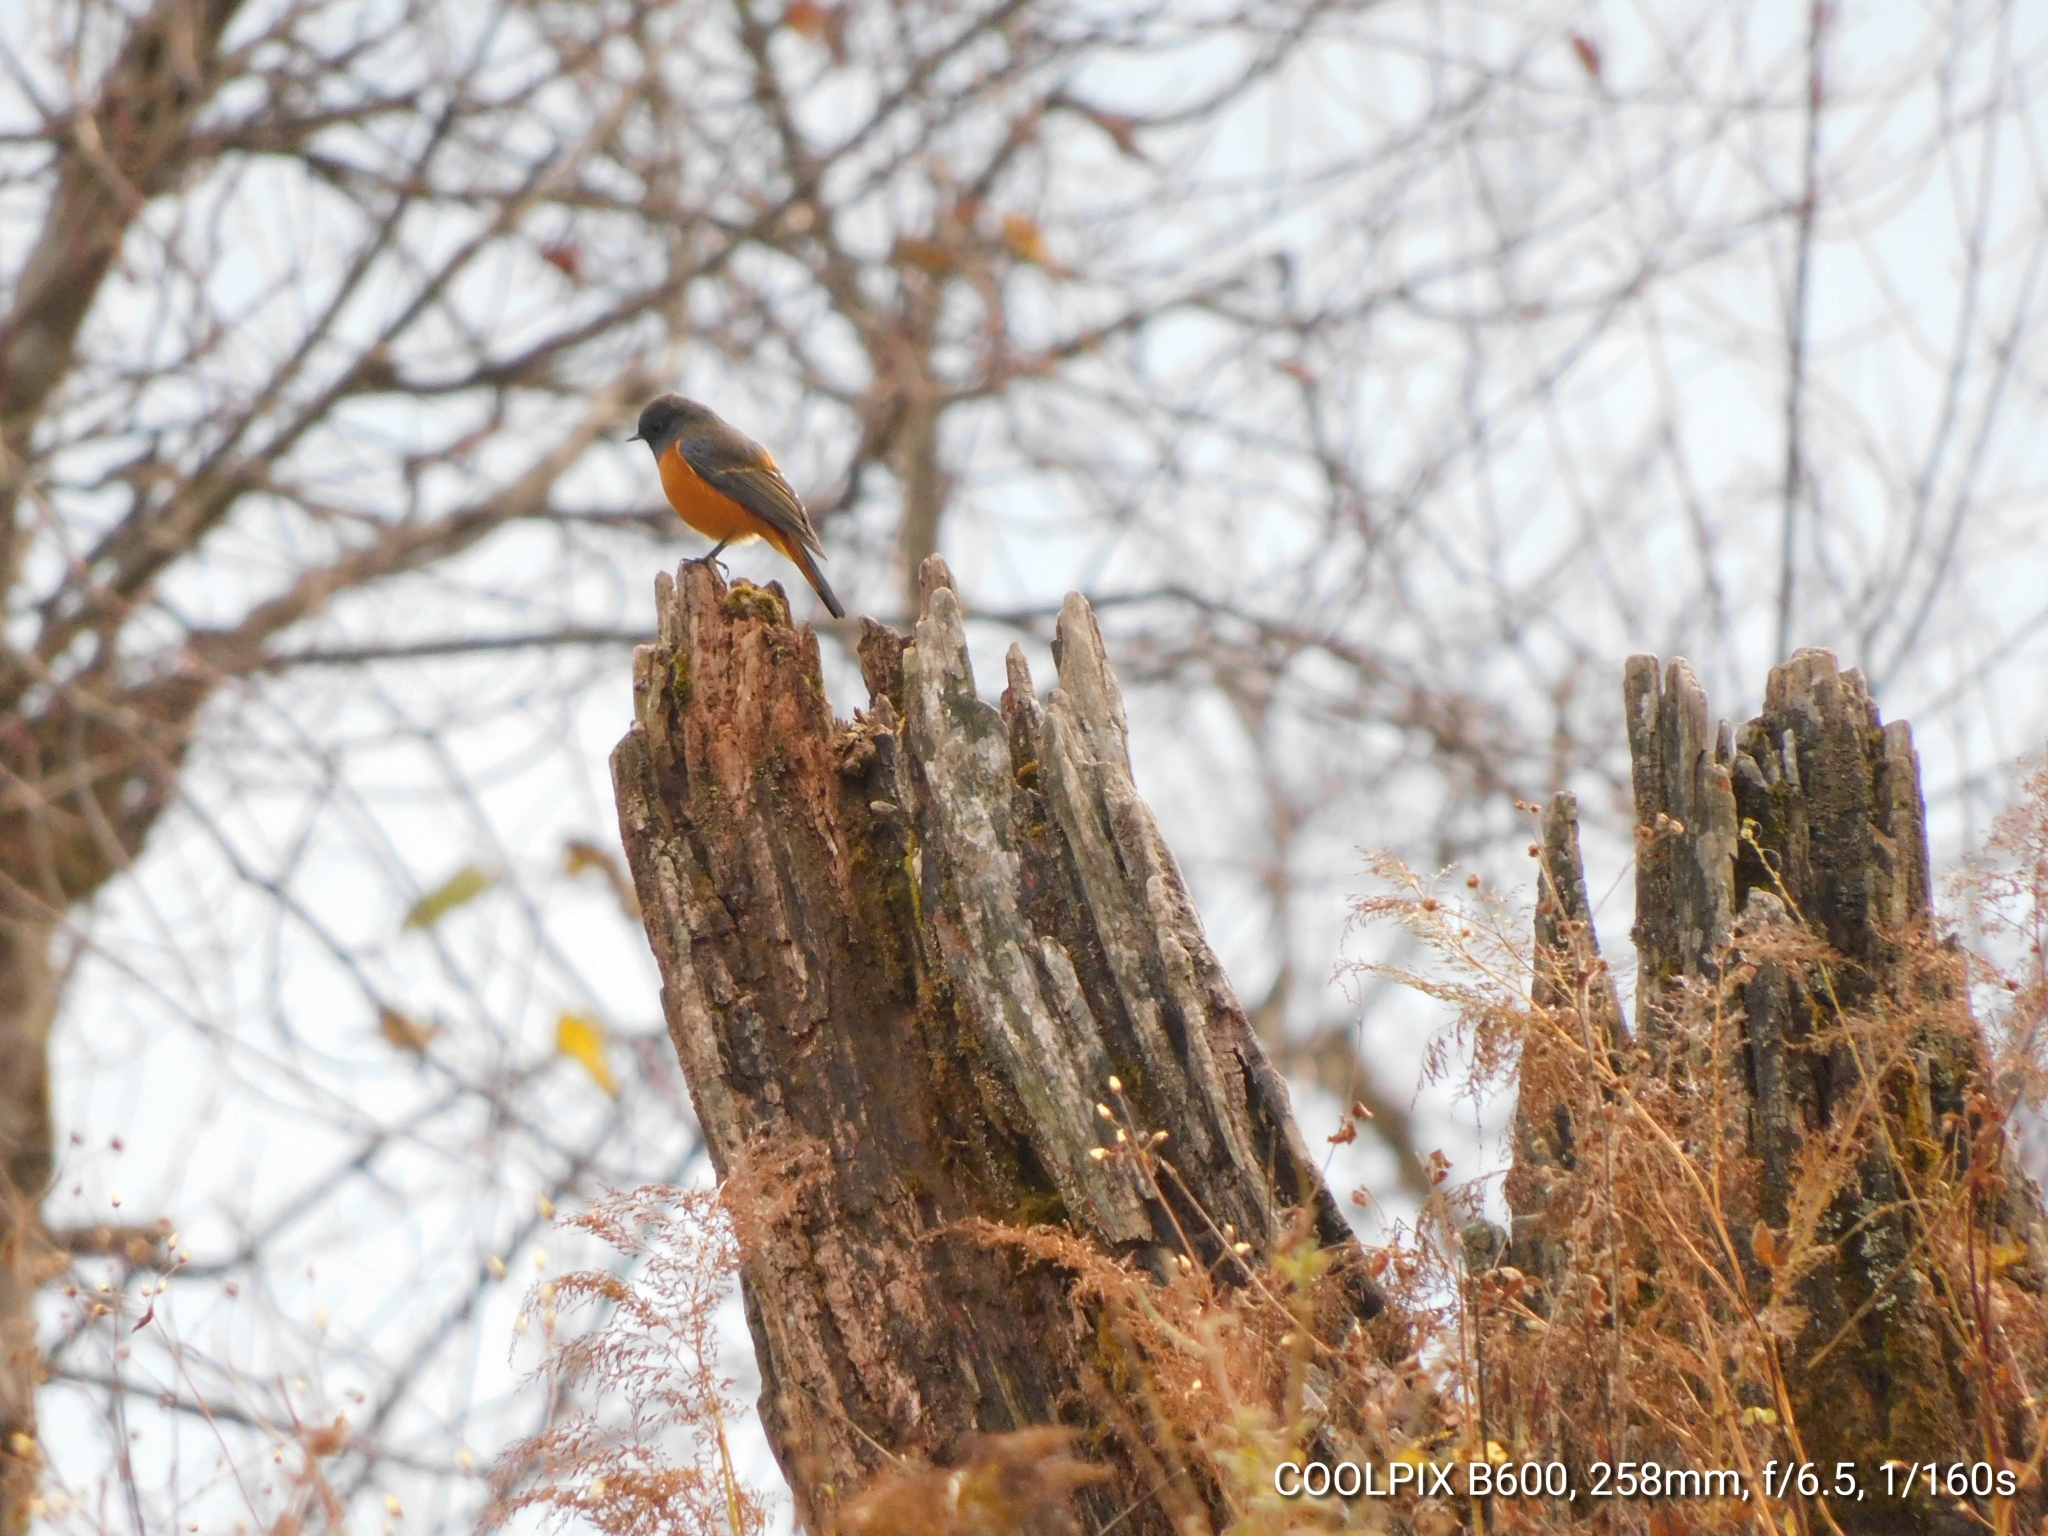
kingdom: Animalia
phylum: Chordata
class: Aves
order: Passeriformes
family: Muscicapidae
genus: Phoenicurus
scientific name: Phoenicurus frontalis
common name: Blue-fronted redstart
